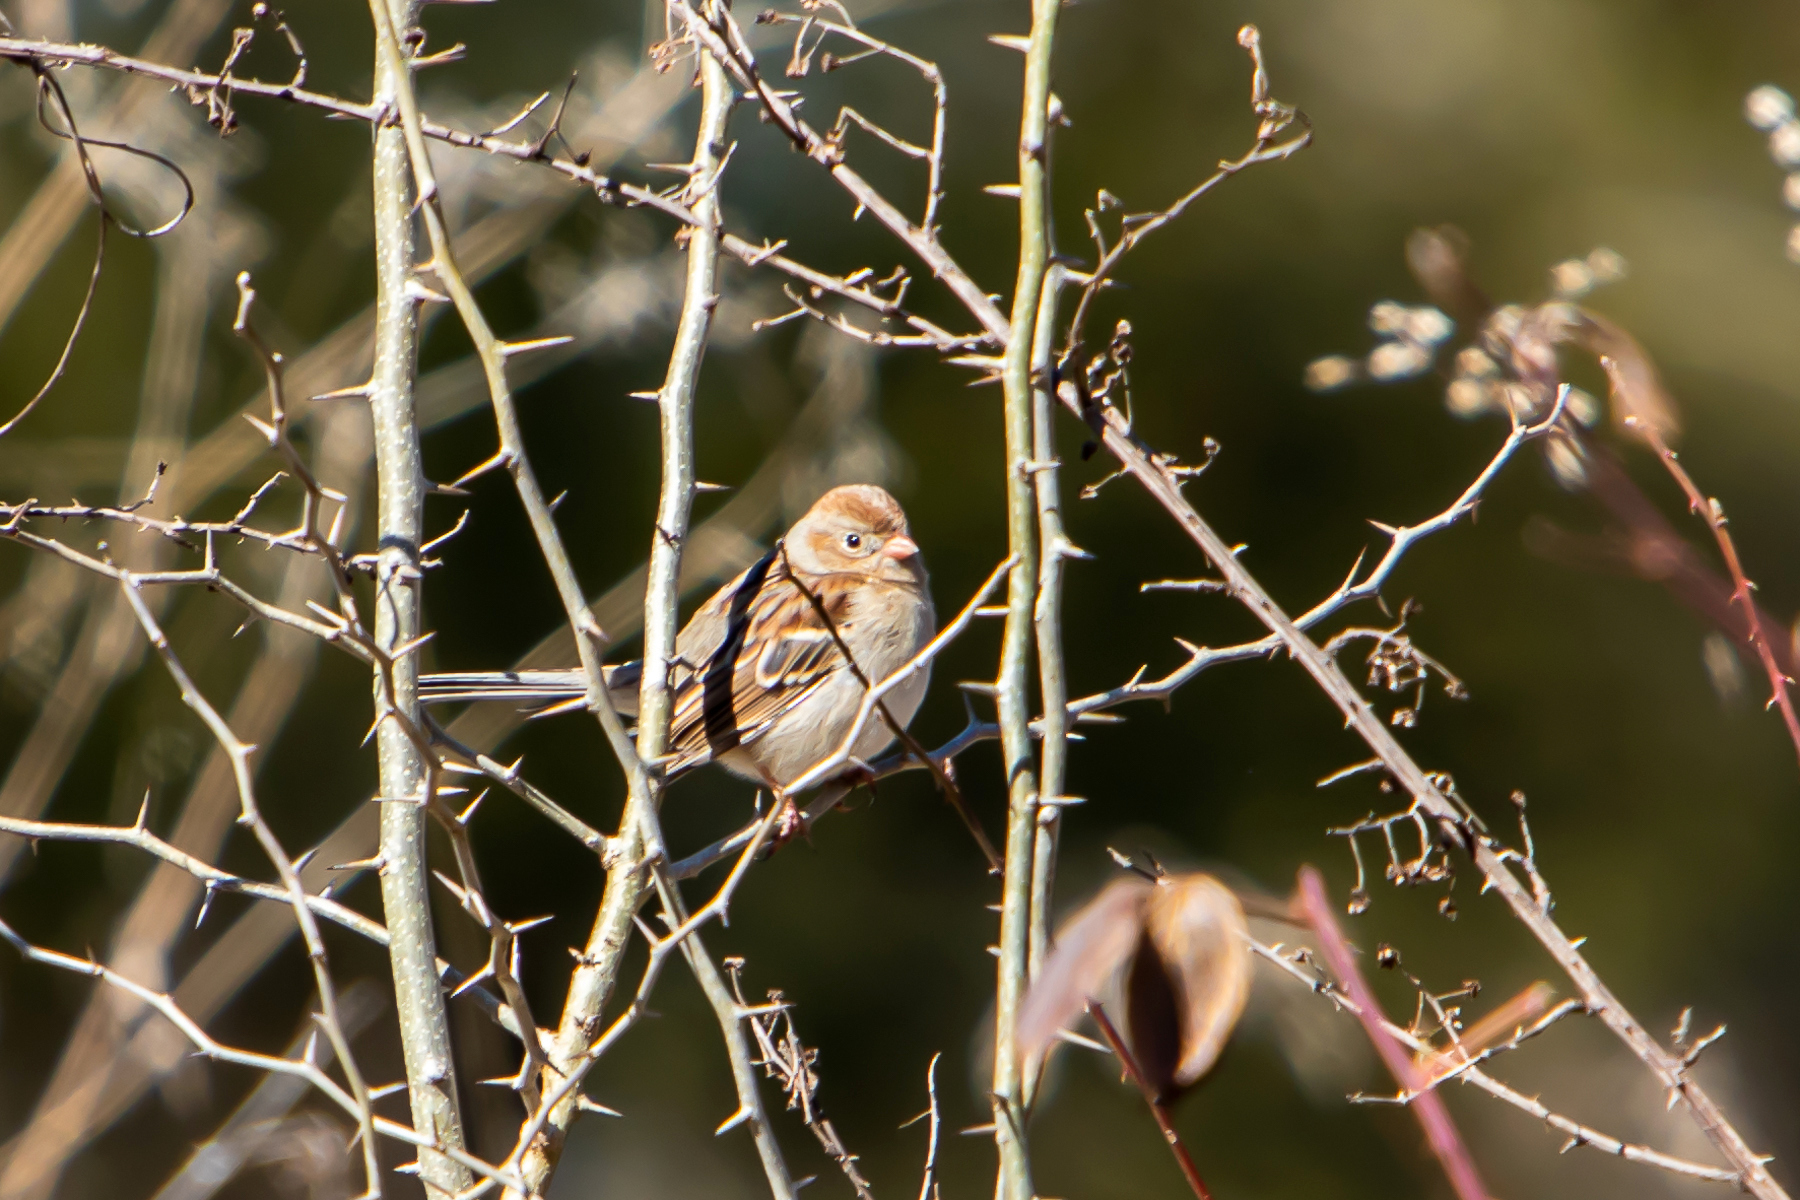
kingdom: Animalia
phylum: Chordata
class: Aves
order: Passeriformes
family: Passerellidae
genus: Spizella
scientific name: Spizella pusilla
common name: Field sparrow
